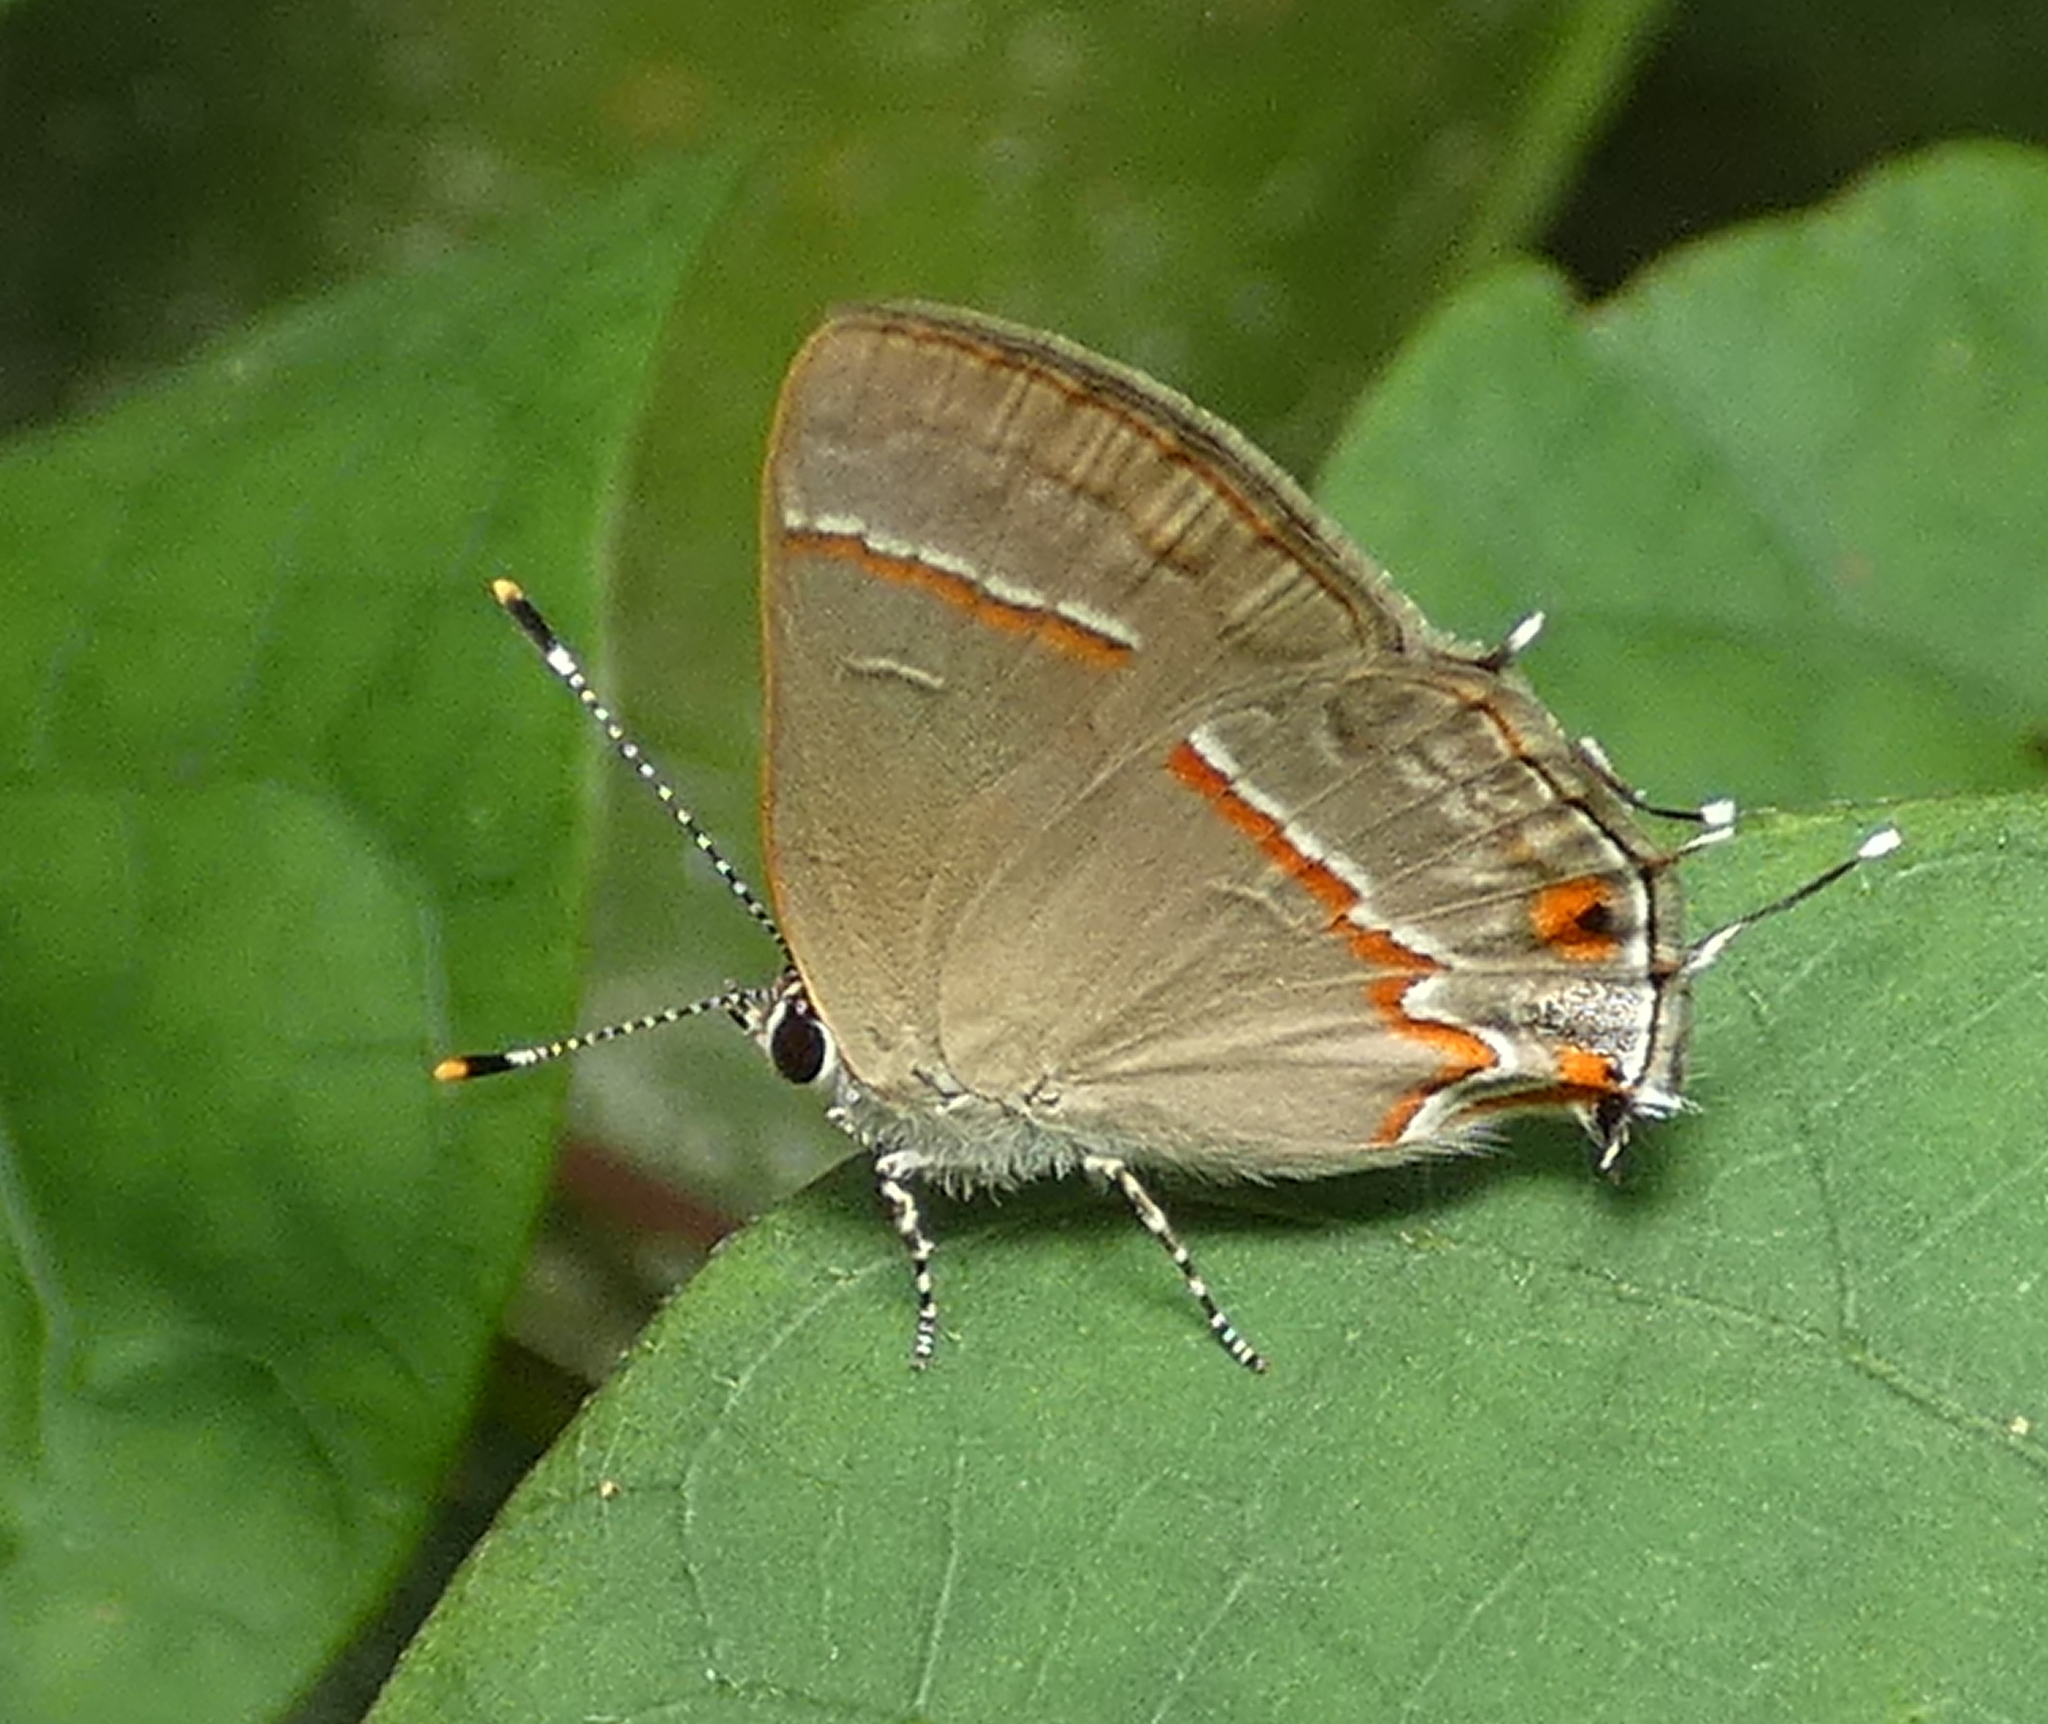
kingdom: Animalia
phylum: Arthropoda
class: Insecta
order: Lepidoptera
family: Lycaenidae
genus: Electrostrymon
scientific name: Electrostrymon endymion
